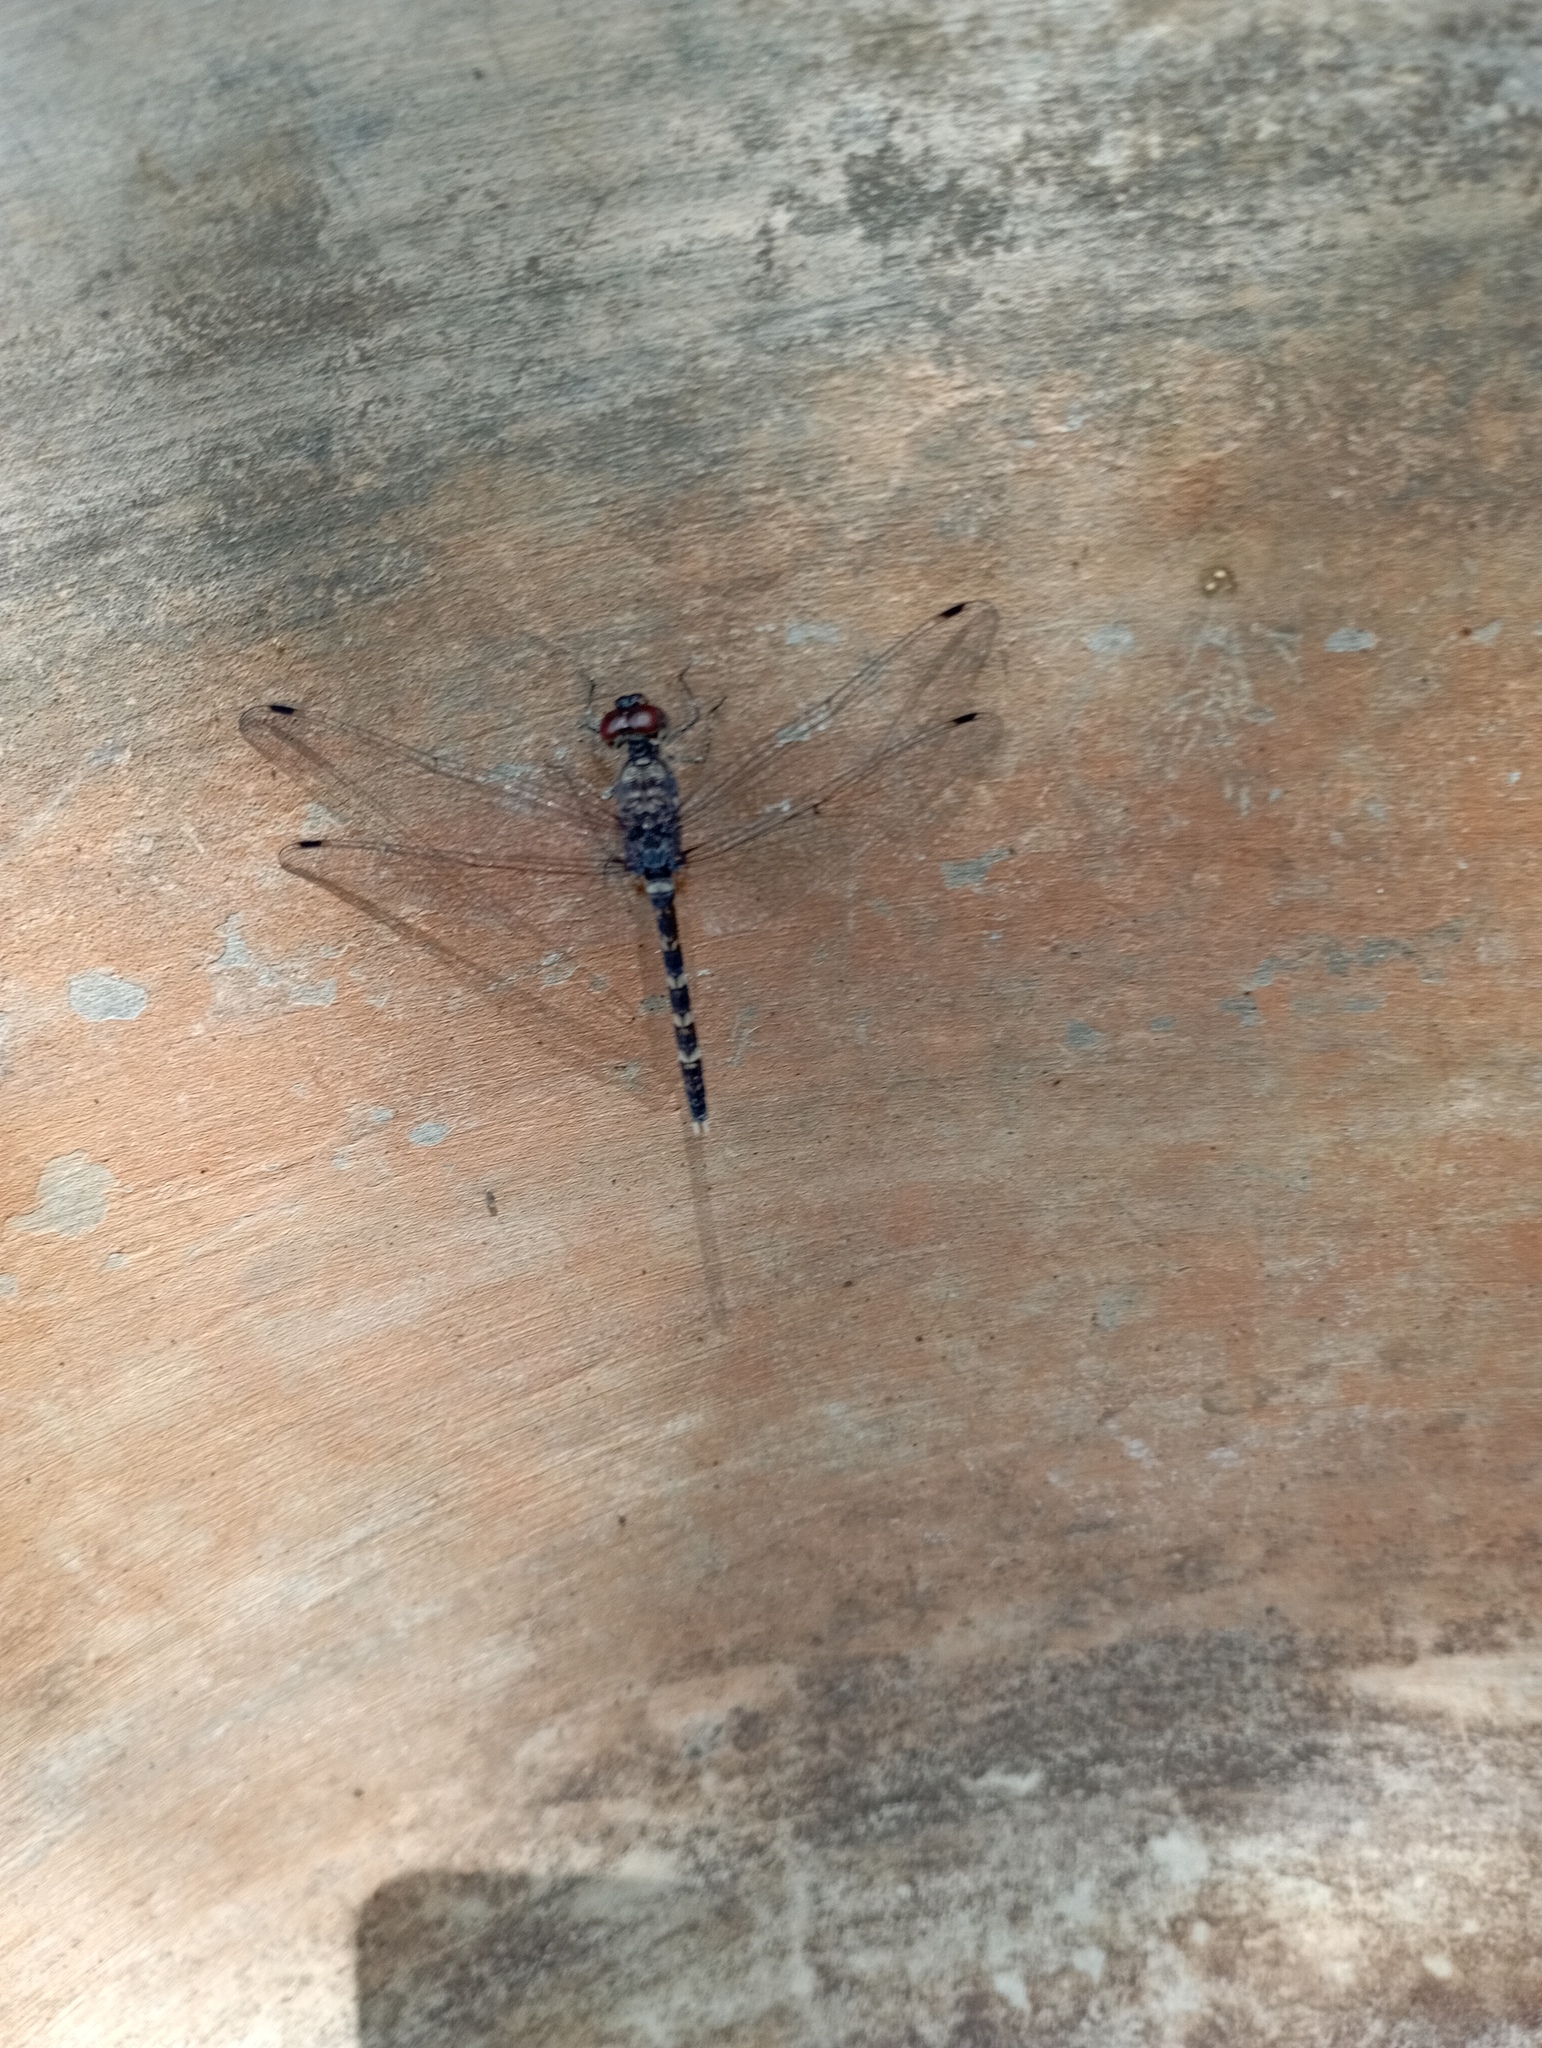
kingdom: Animalia
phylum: Arthropoda
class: Insecta
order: Odonata
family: Libellulidae
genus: Bradinopyga
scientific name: Bradinopyga geminata
